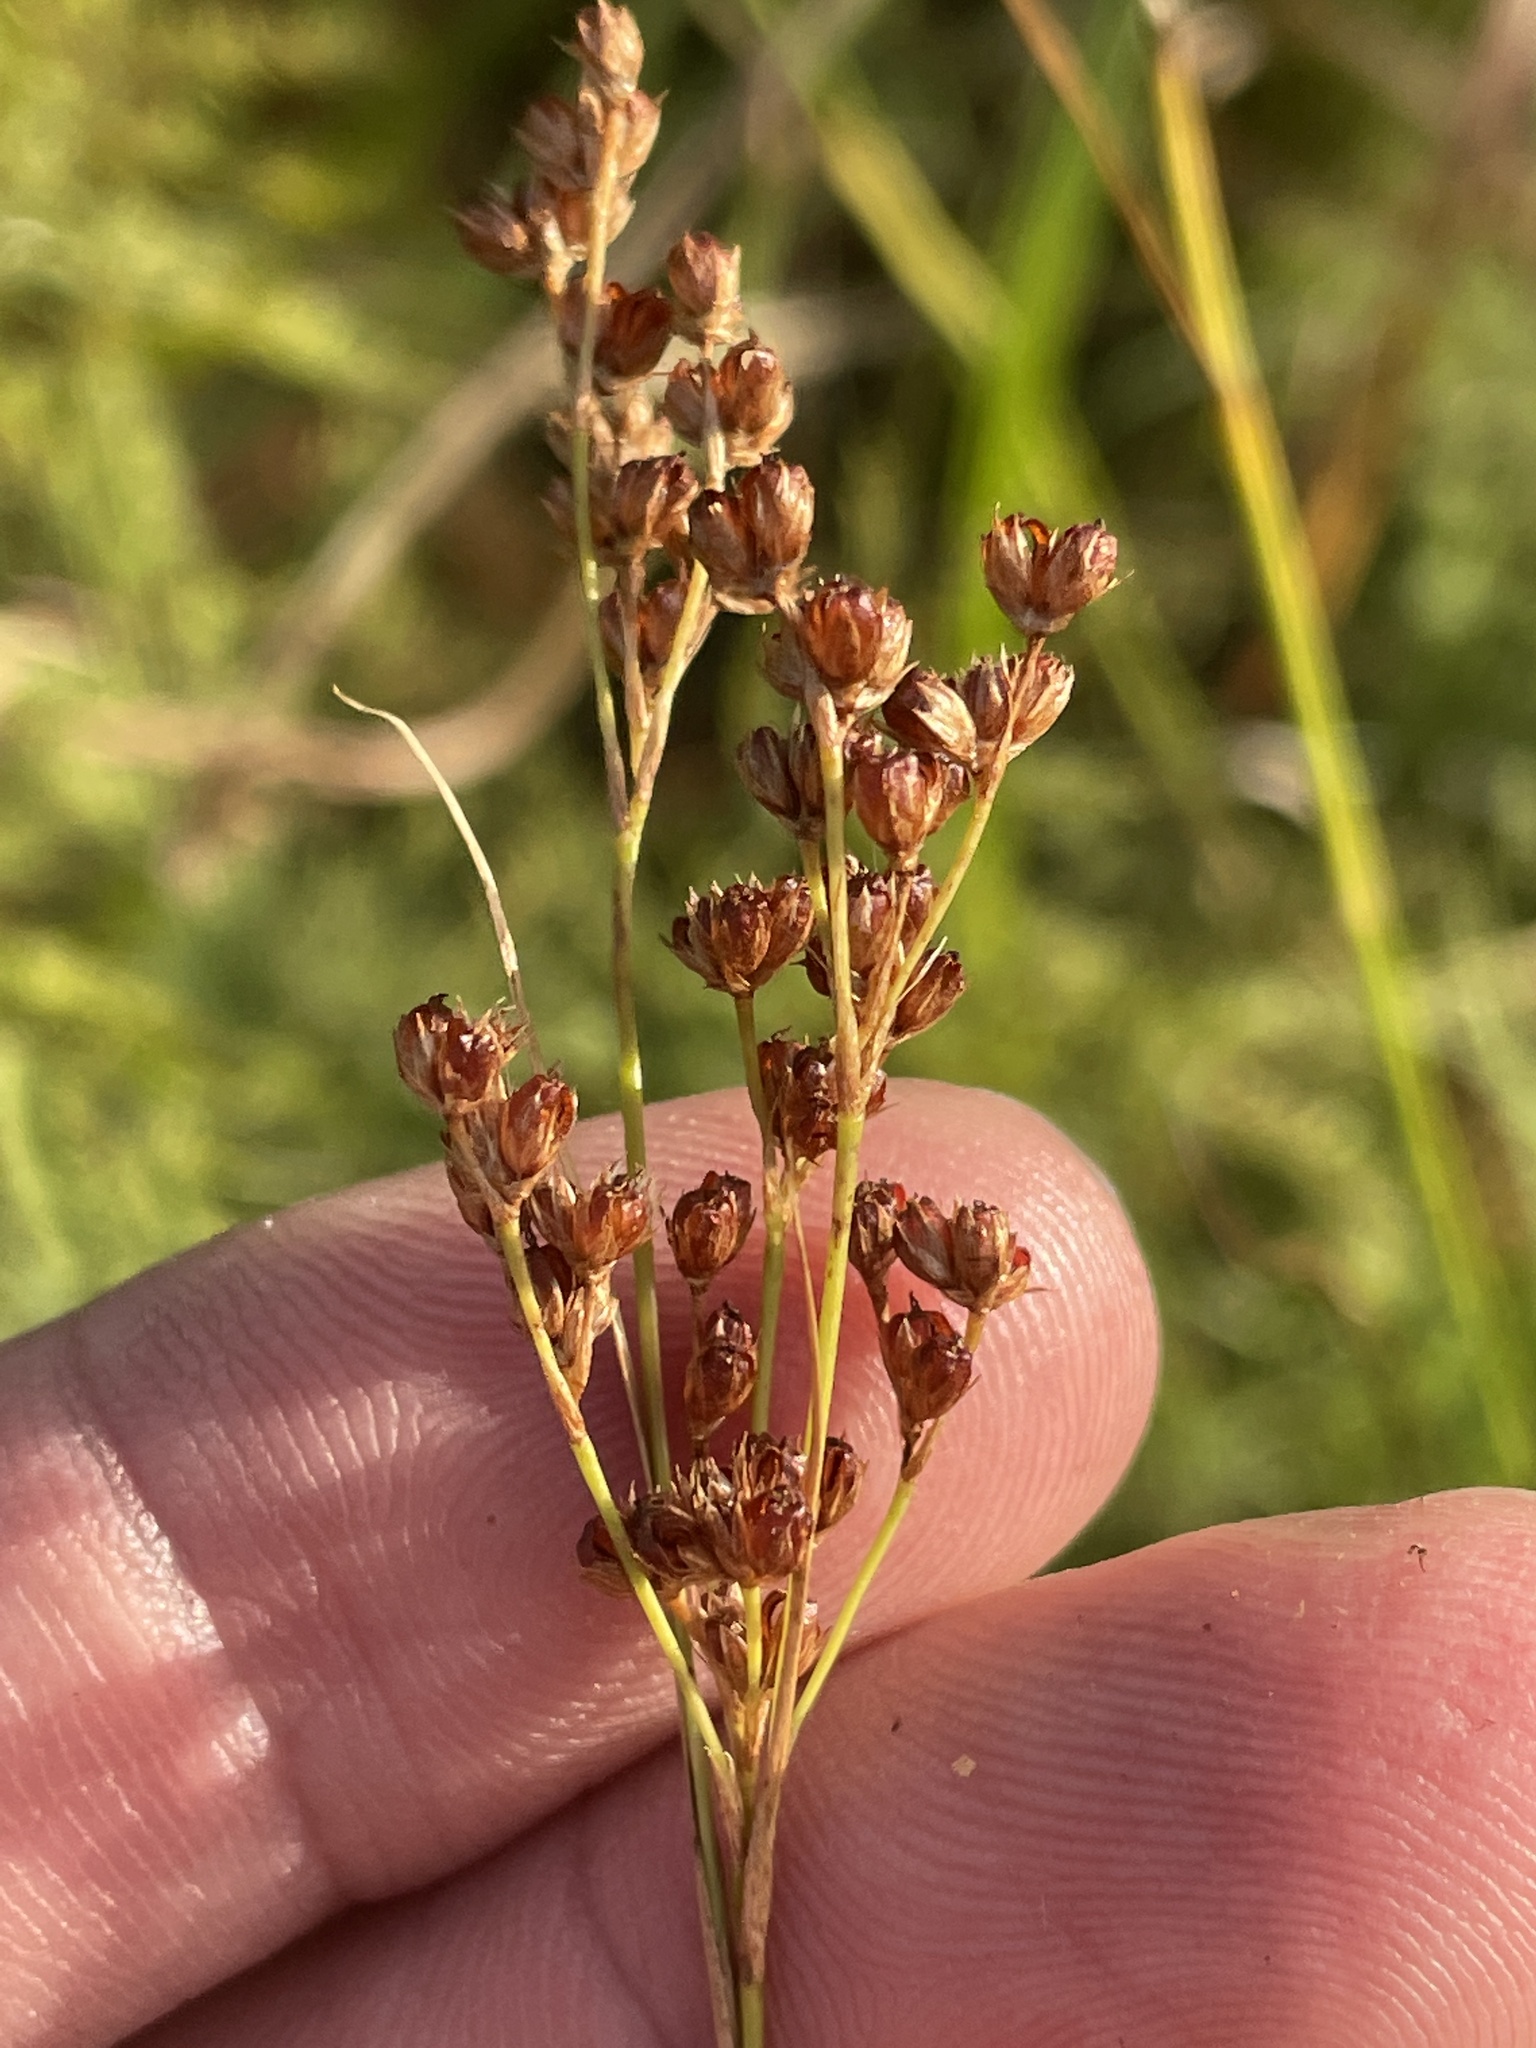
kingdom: Plantae
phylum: Tracheophyta
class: Liliopsida
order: Poales
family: Juncaceae
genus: Juncus
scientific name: Juncus marginatus
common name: Grass-leaf rush
